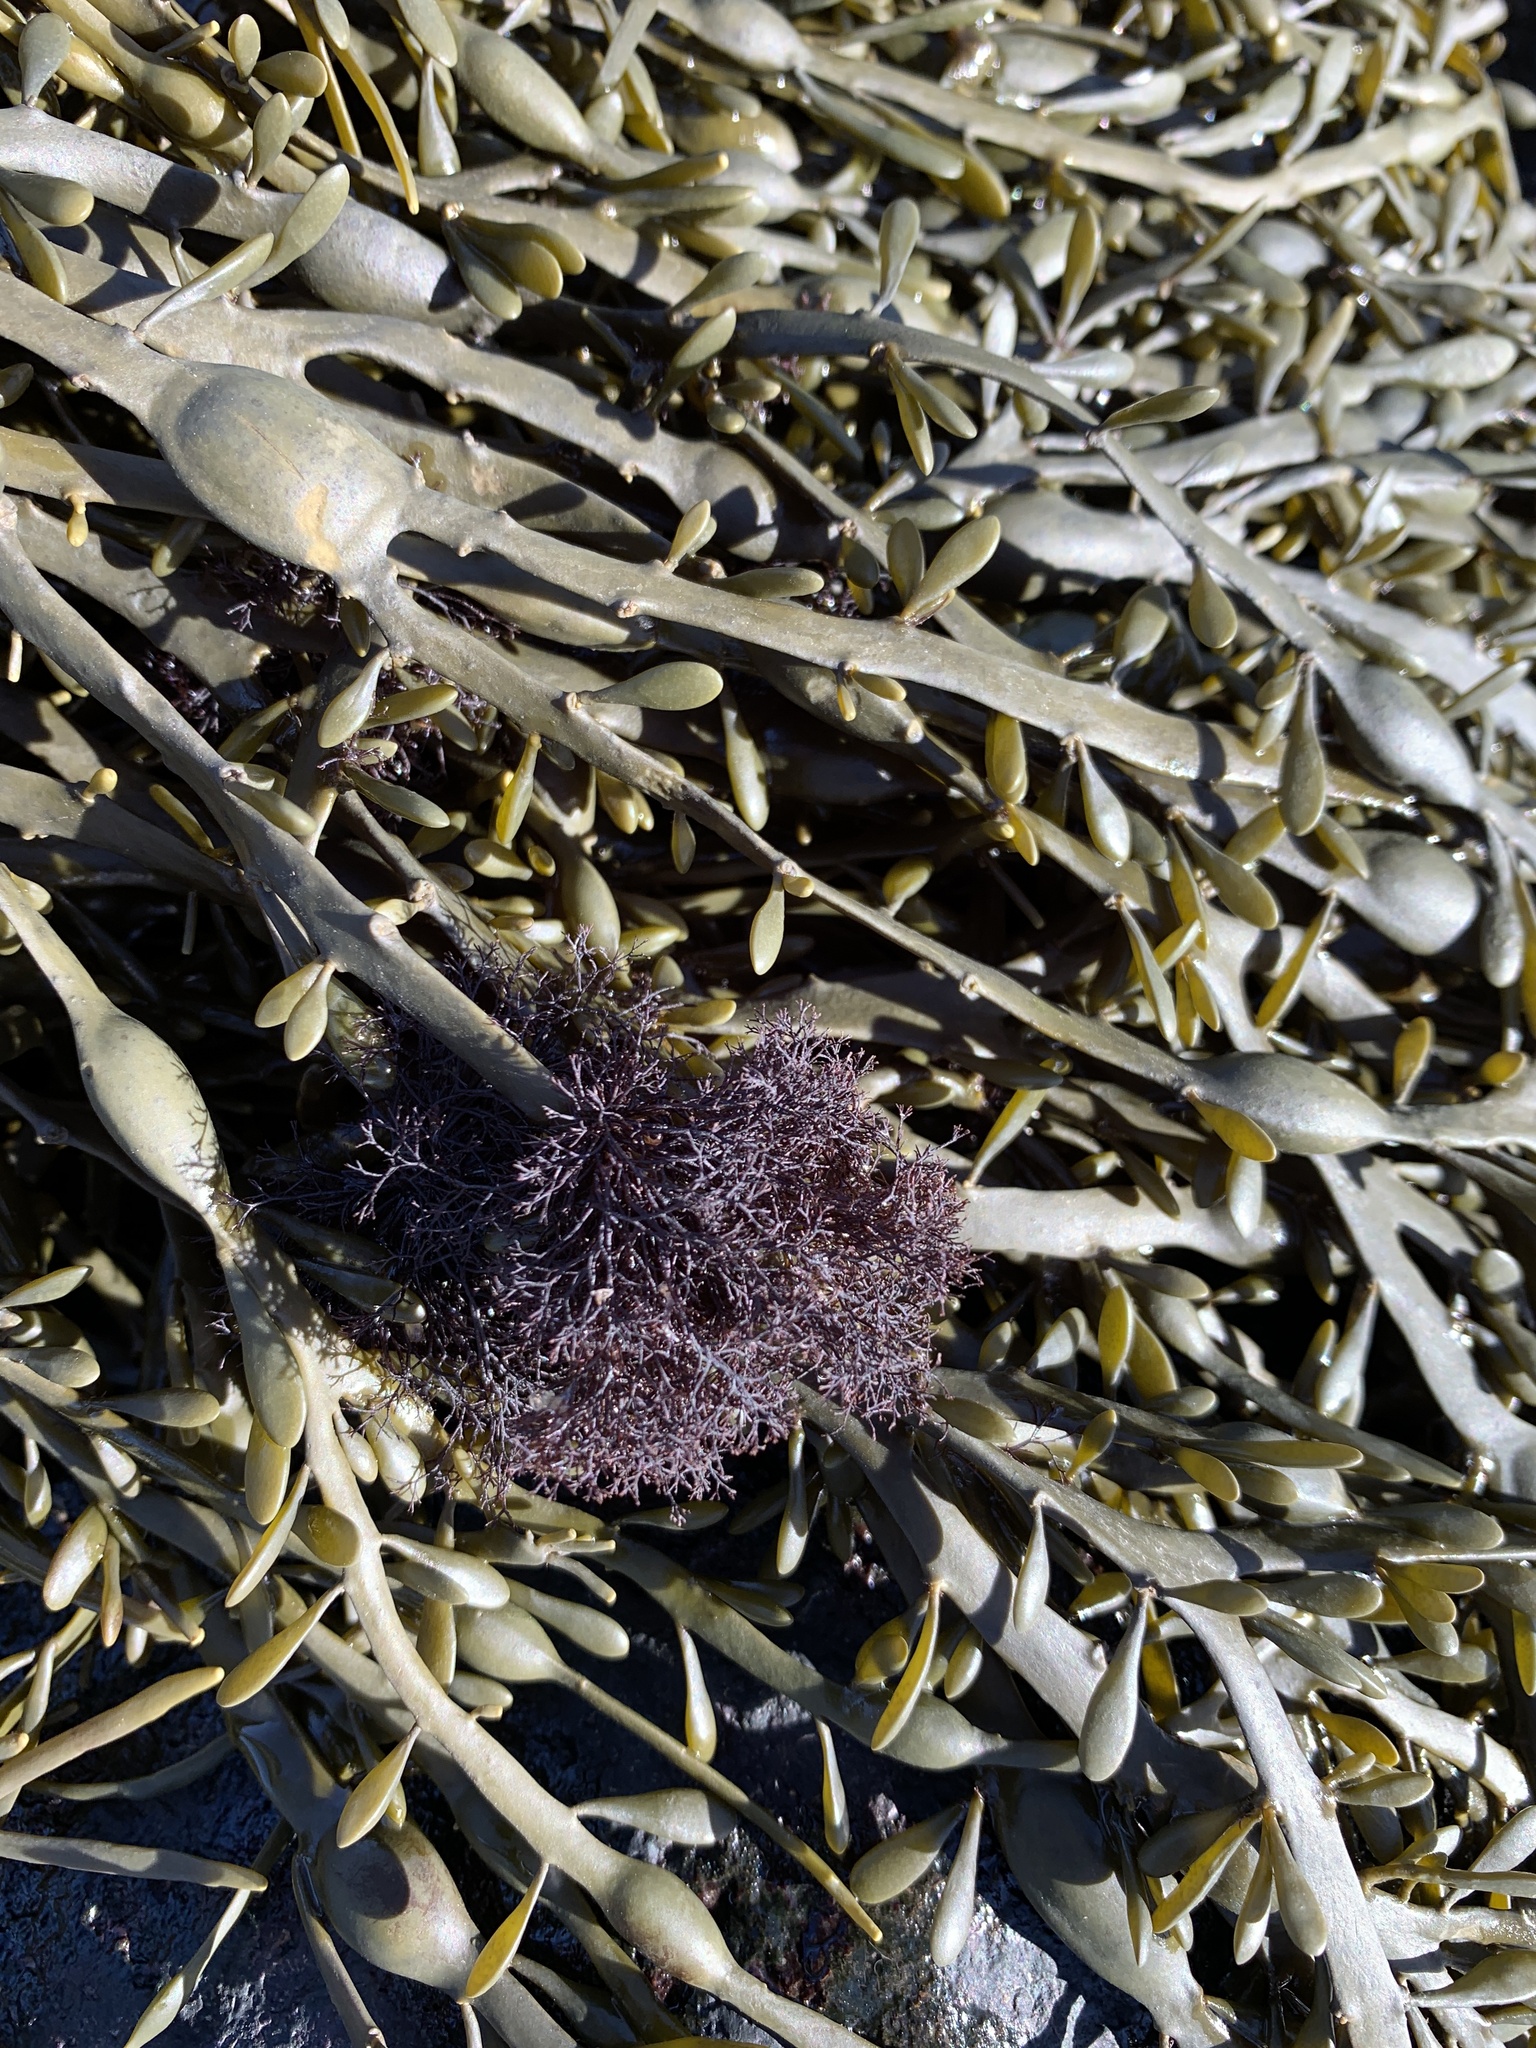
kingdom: Plantae
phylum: Rhodophyta
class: Florideophyceae
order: Ceramiales
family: Rhodomelaceae
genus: Vertebrata
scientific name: Vertebrata lanosa
